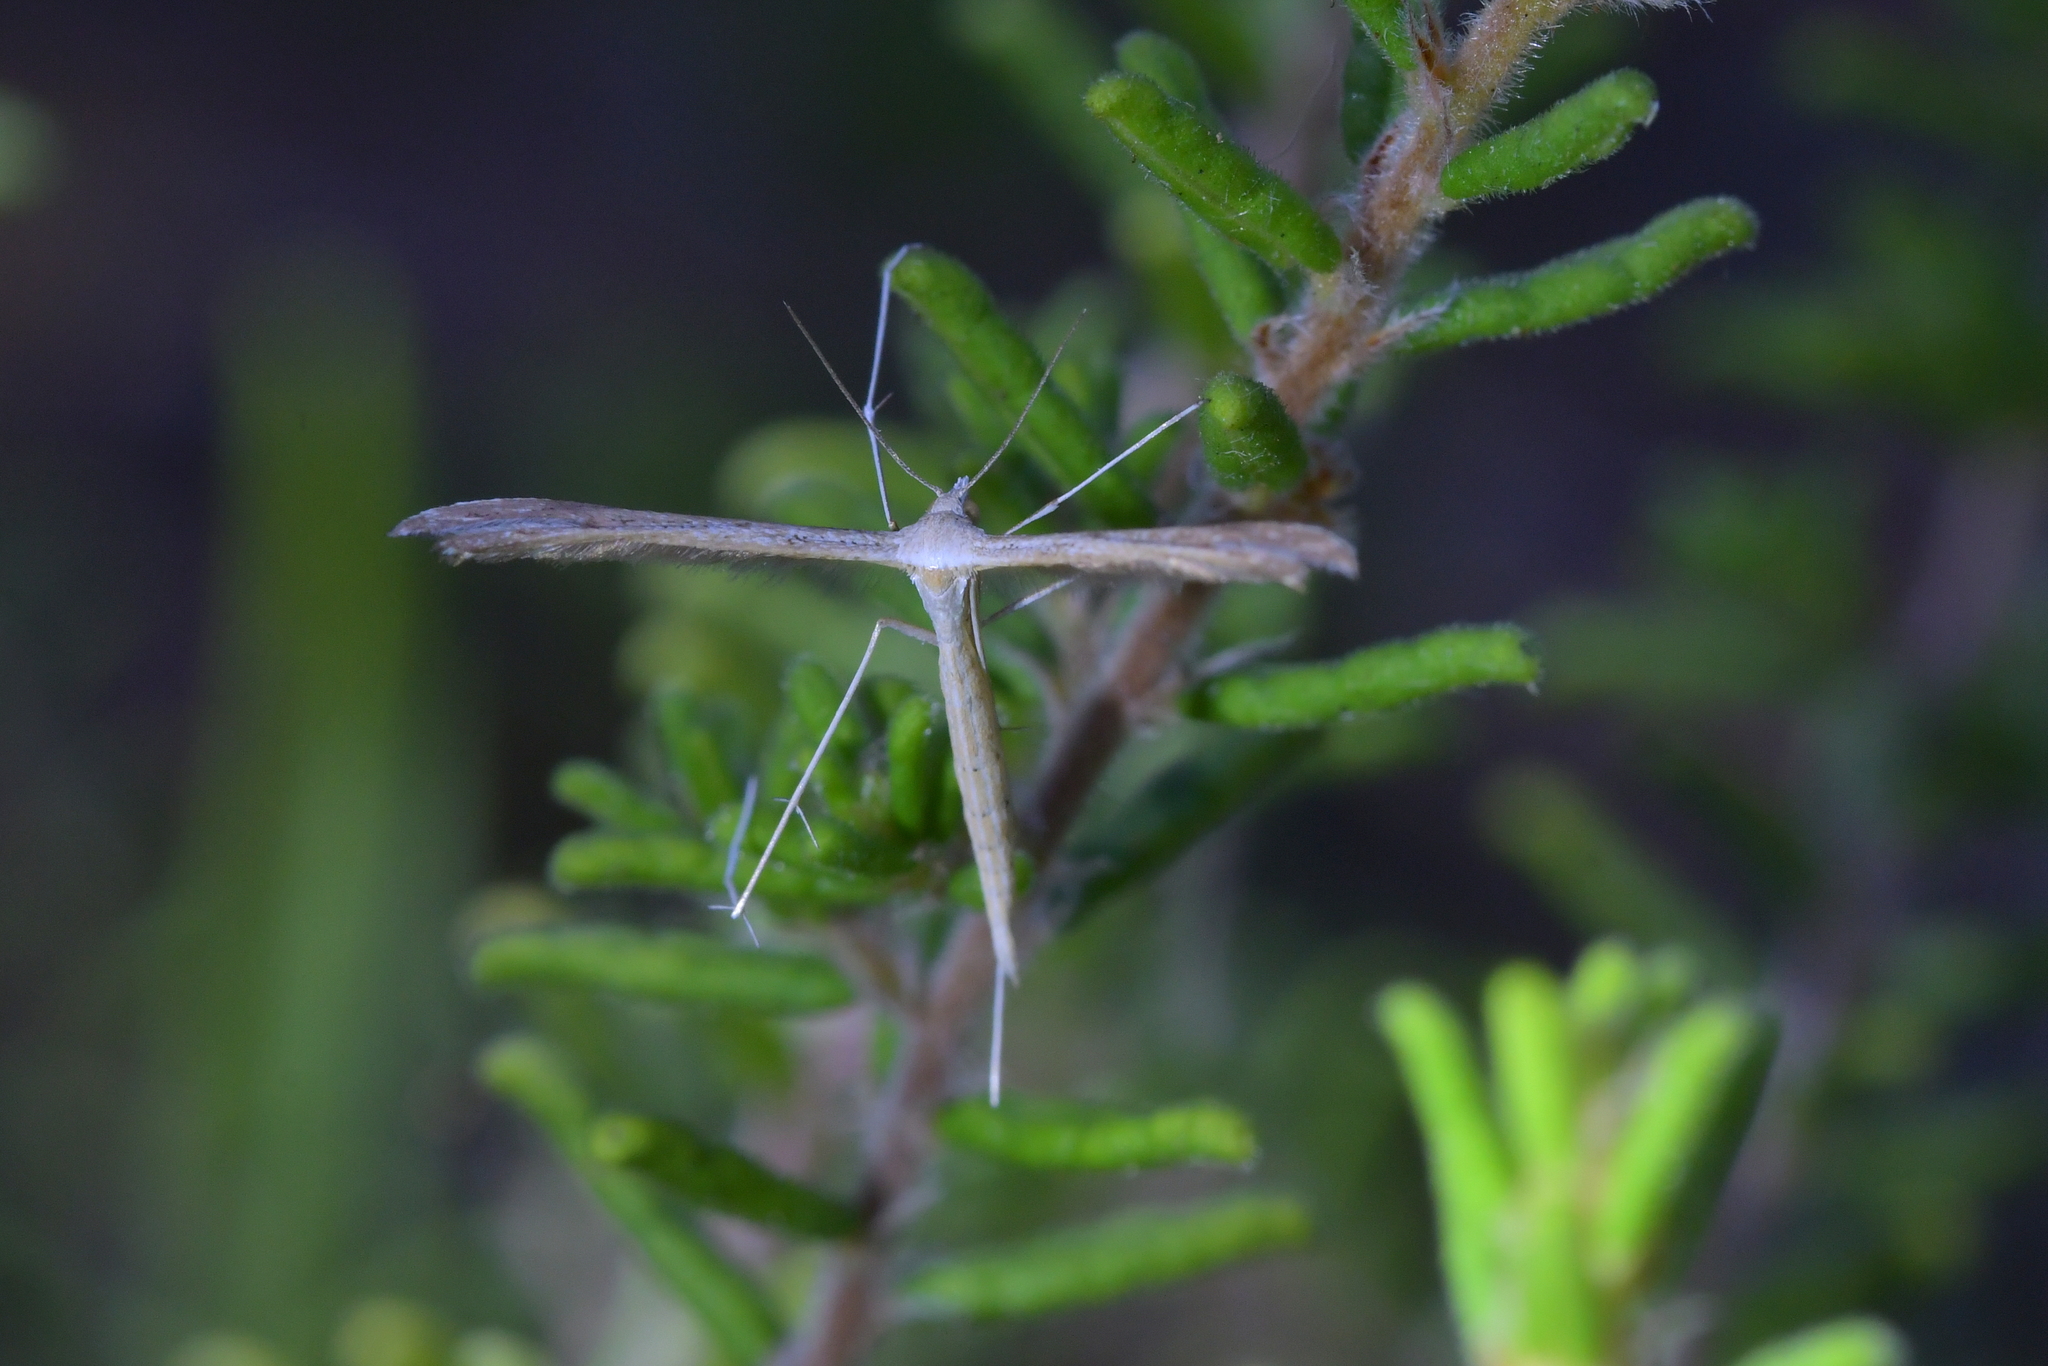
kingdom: Animalia
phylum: Arthropoda
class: Insecta
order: Lepidoptera
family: Pterophoridae
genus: Stenoptilia
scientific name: Stenoptilia zophodactylus
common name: Dowdy plume
